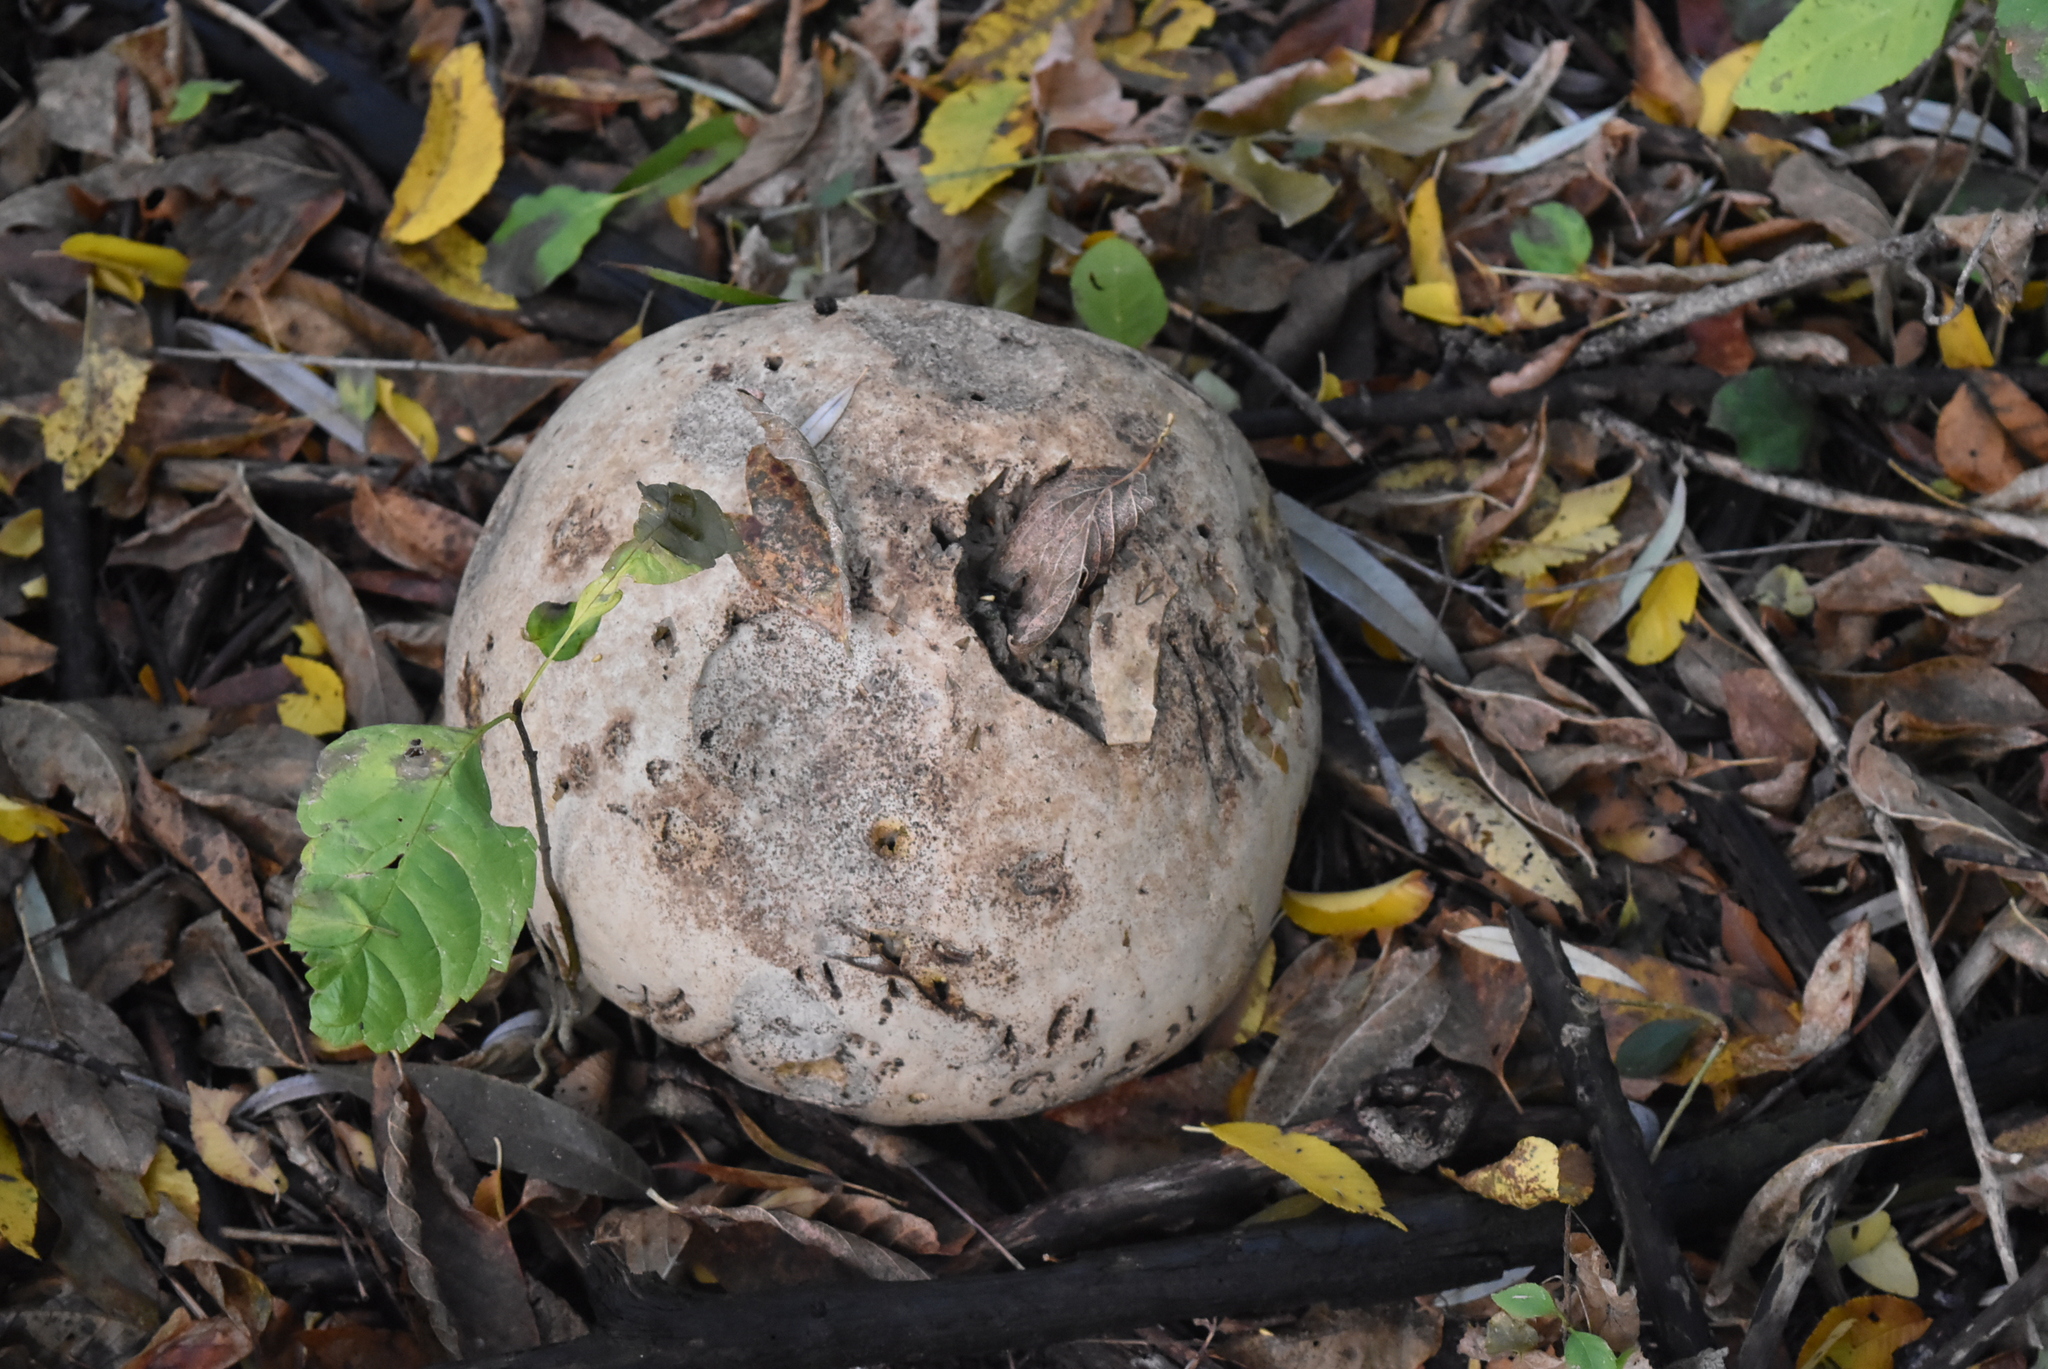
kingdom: Fungi
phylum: Basidiomycota
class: Agaricomycetes
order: Agaricales
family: Lycoperdaceae
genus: Calvatia
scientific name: Calvatia gigantea
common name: Giant puffball
